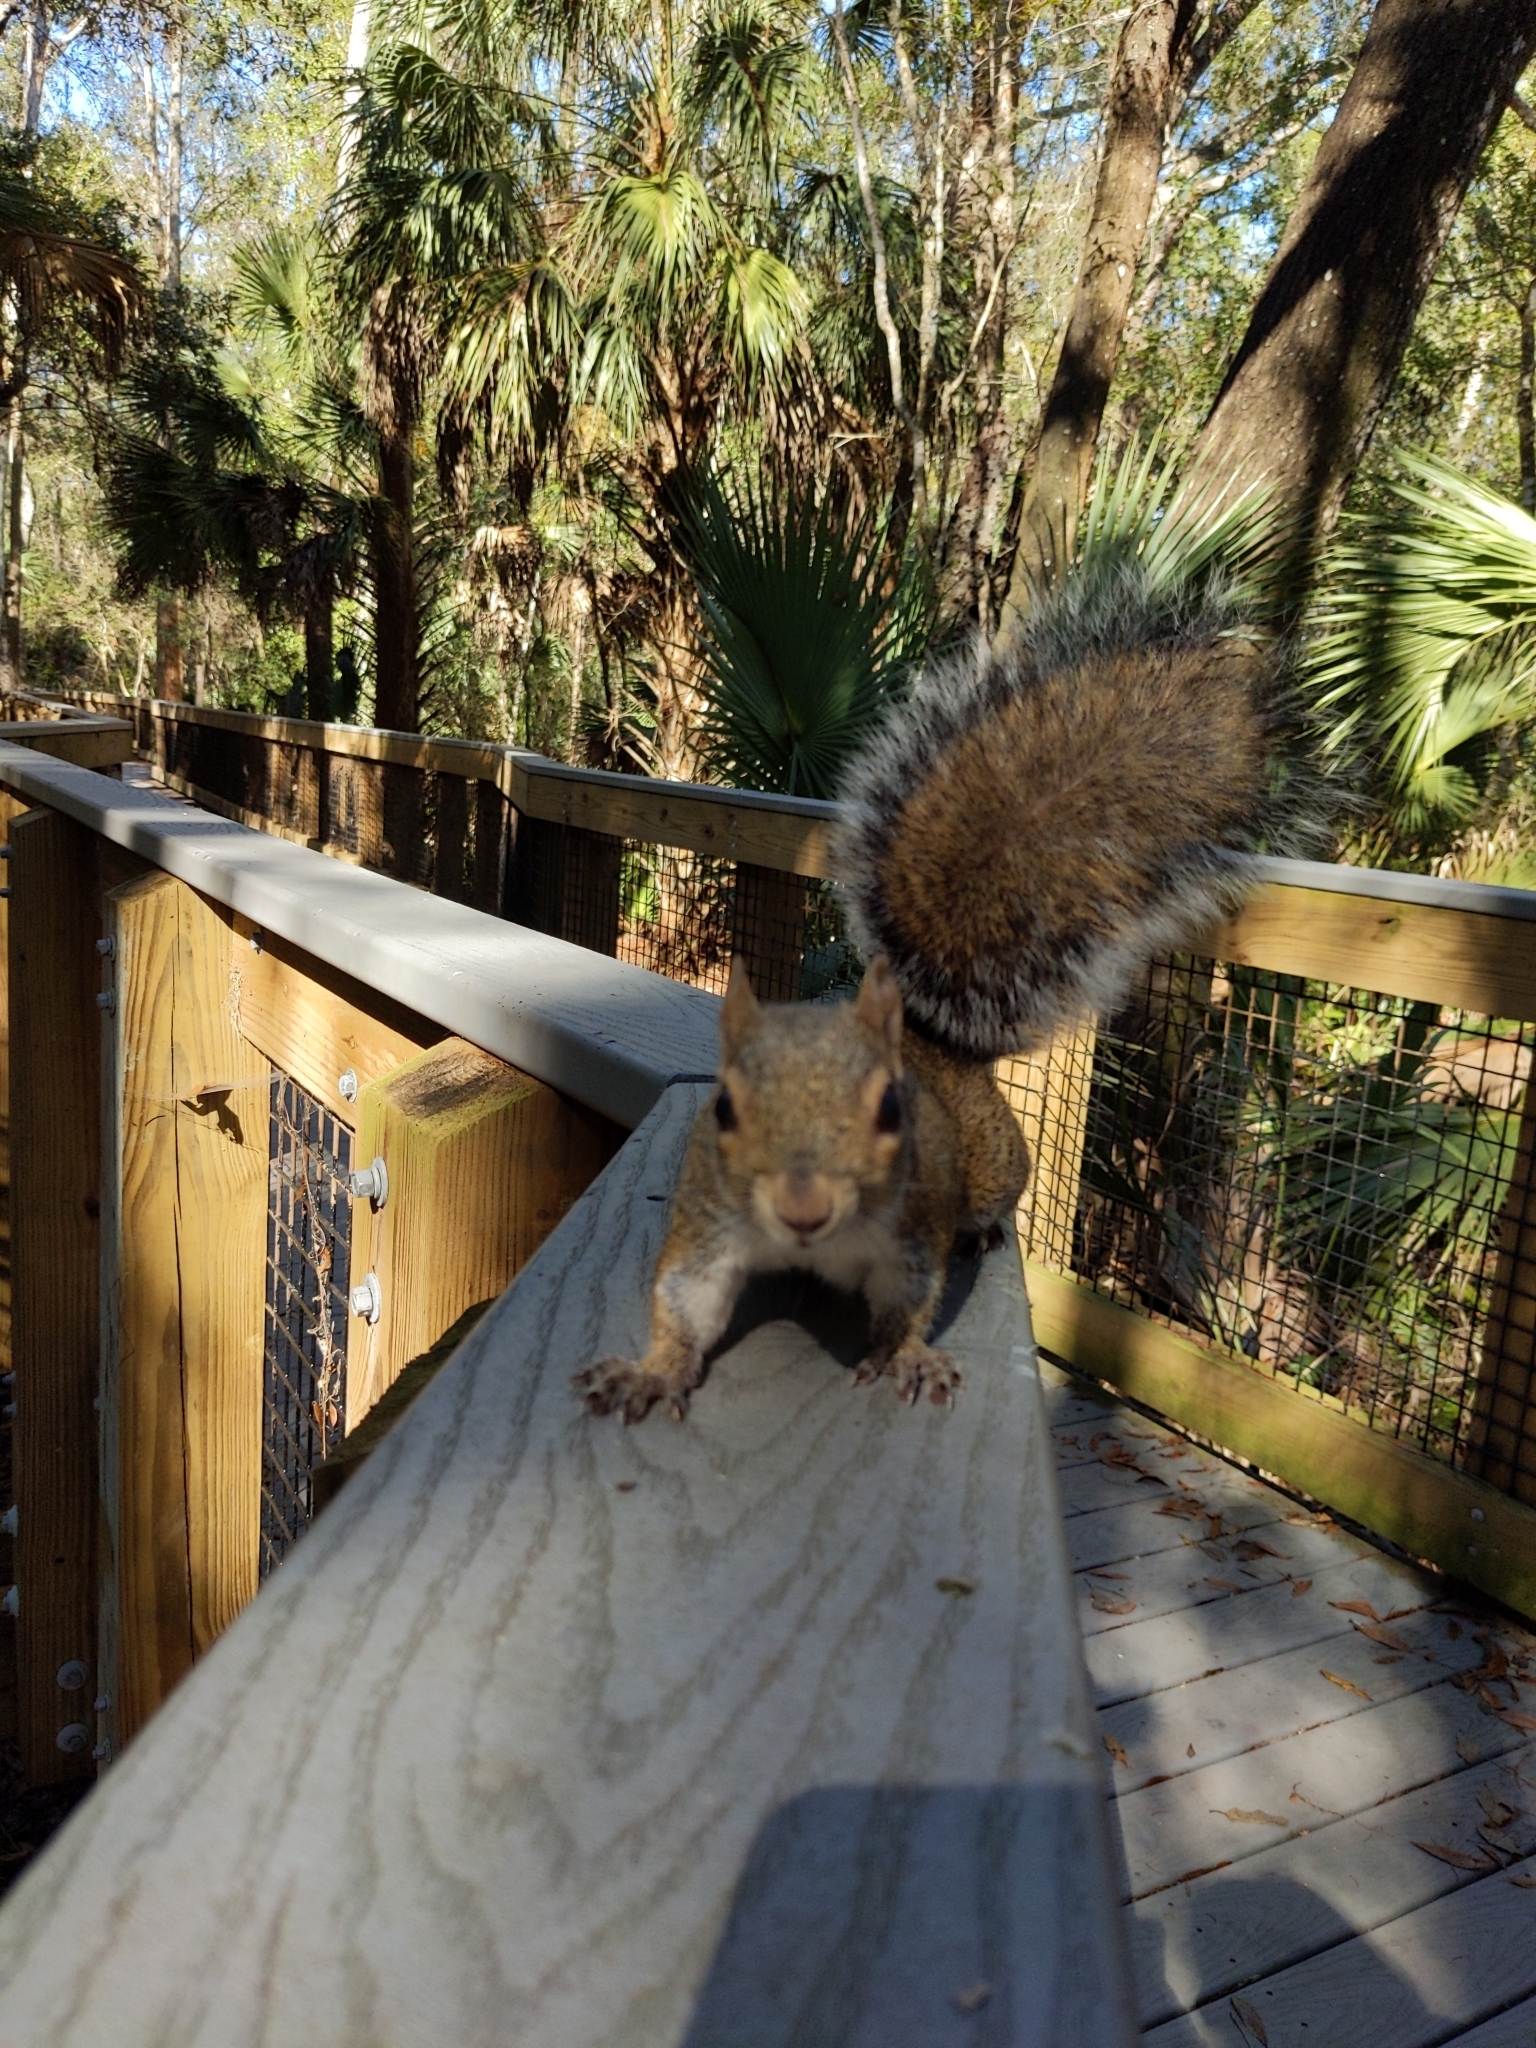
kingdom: Animalia
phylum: Chordata
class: Mammalia
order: Rodentia
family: Sciuridae
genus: Sciurus
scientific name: Sciurus carolinensis
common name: Eastern gray squirrel
